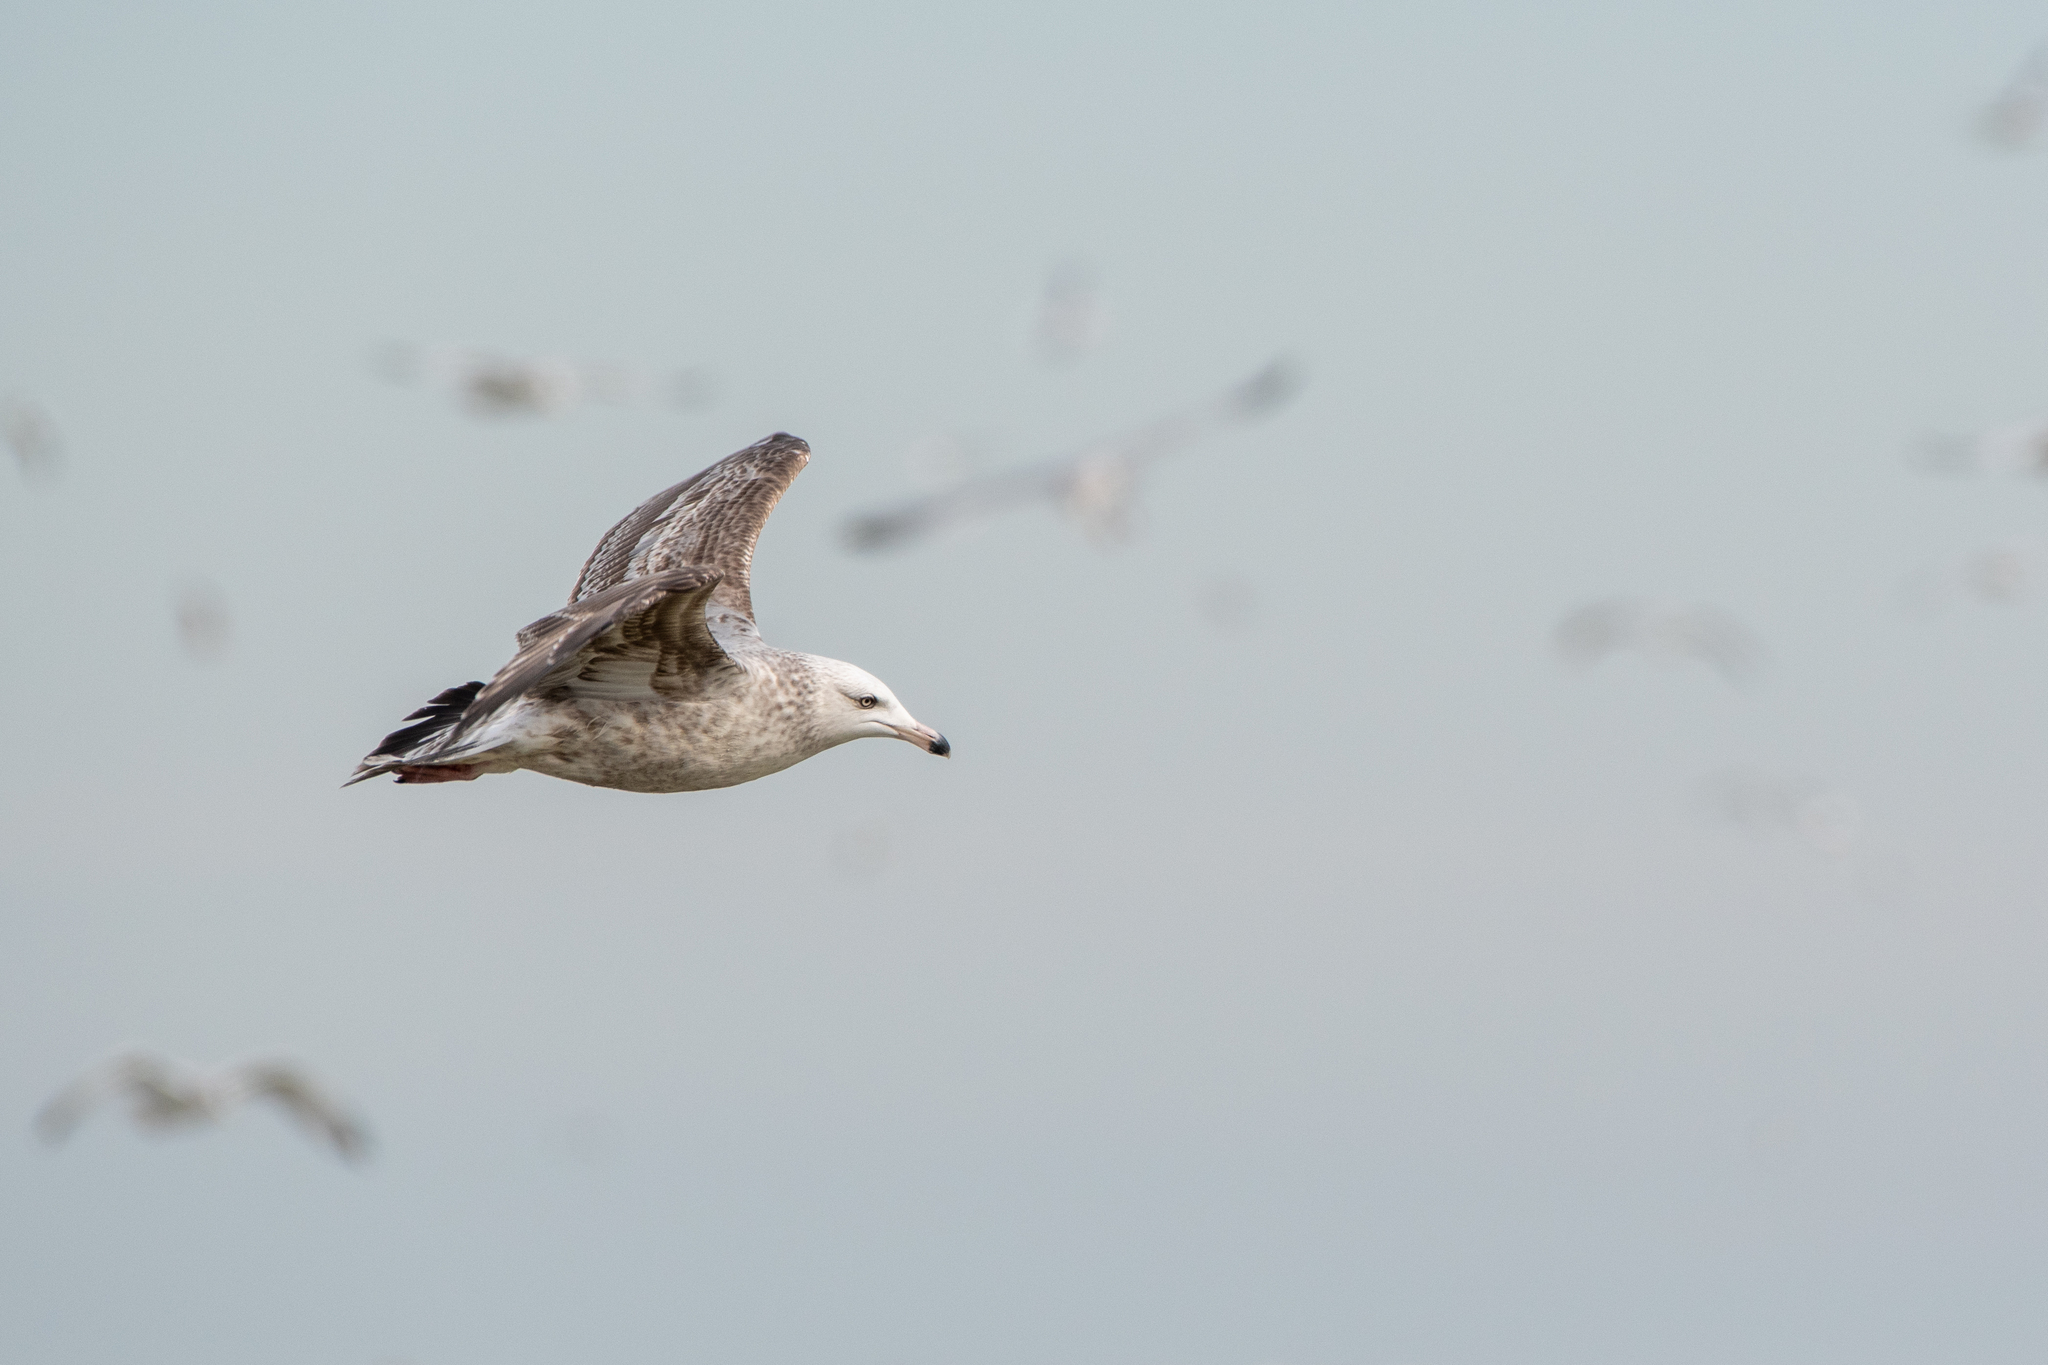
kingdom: Animalia
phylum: Chordata
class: Aves
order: Charadriiformes
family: Laridae
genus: Larus
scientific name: Larus argentatus
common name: Herring gull
